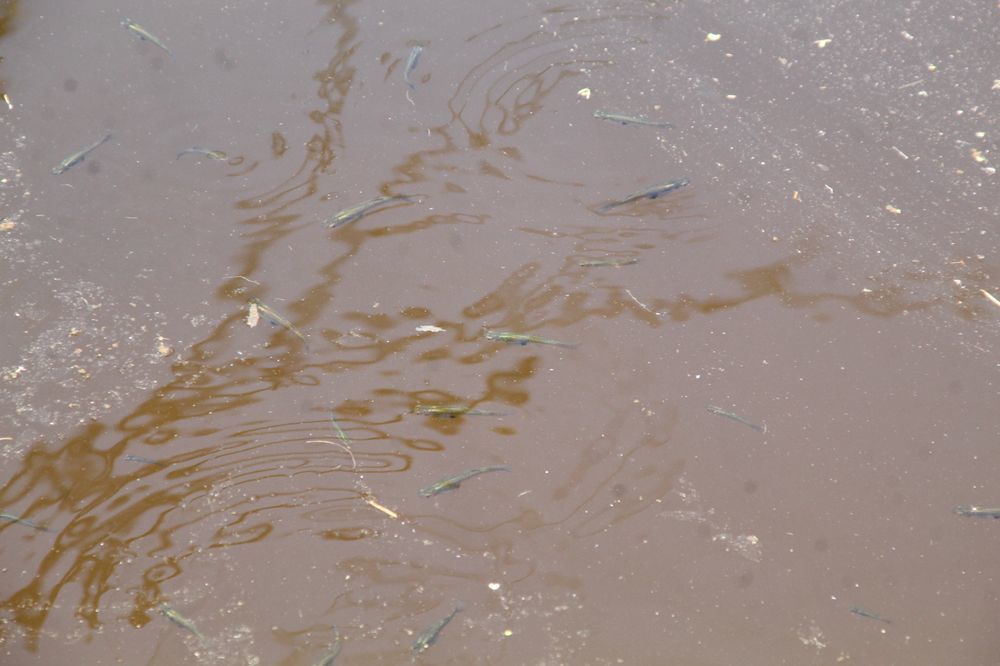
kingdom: Animalia
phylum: Chordata
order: Cyprinodontiformes
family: Poeciliidae
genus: Gambusia
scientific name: Gambusia holbrooki
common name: Eastern mosquitofish
